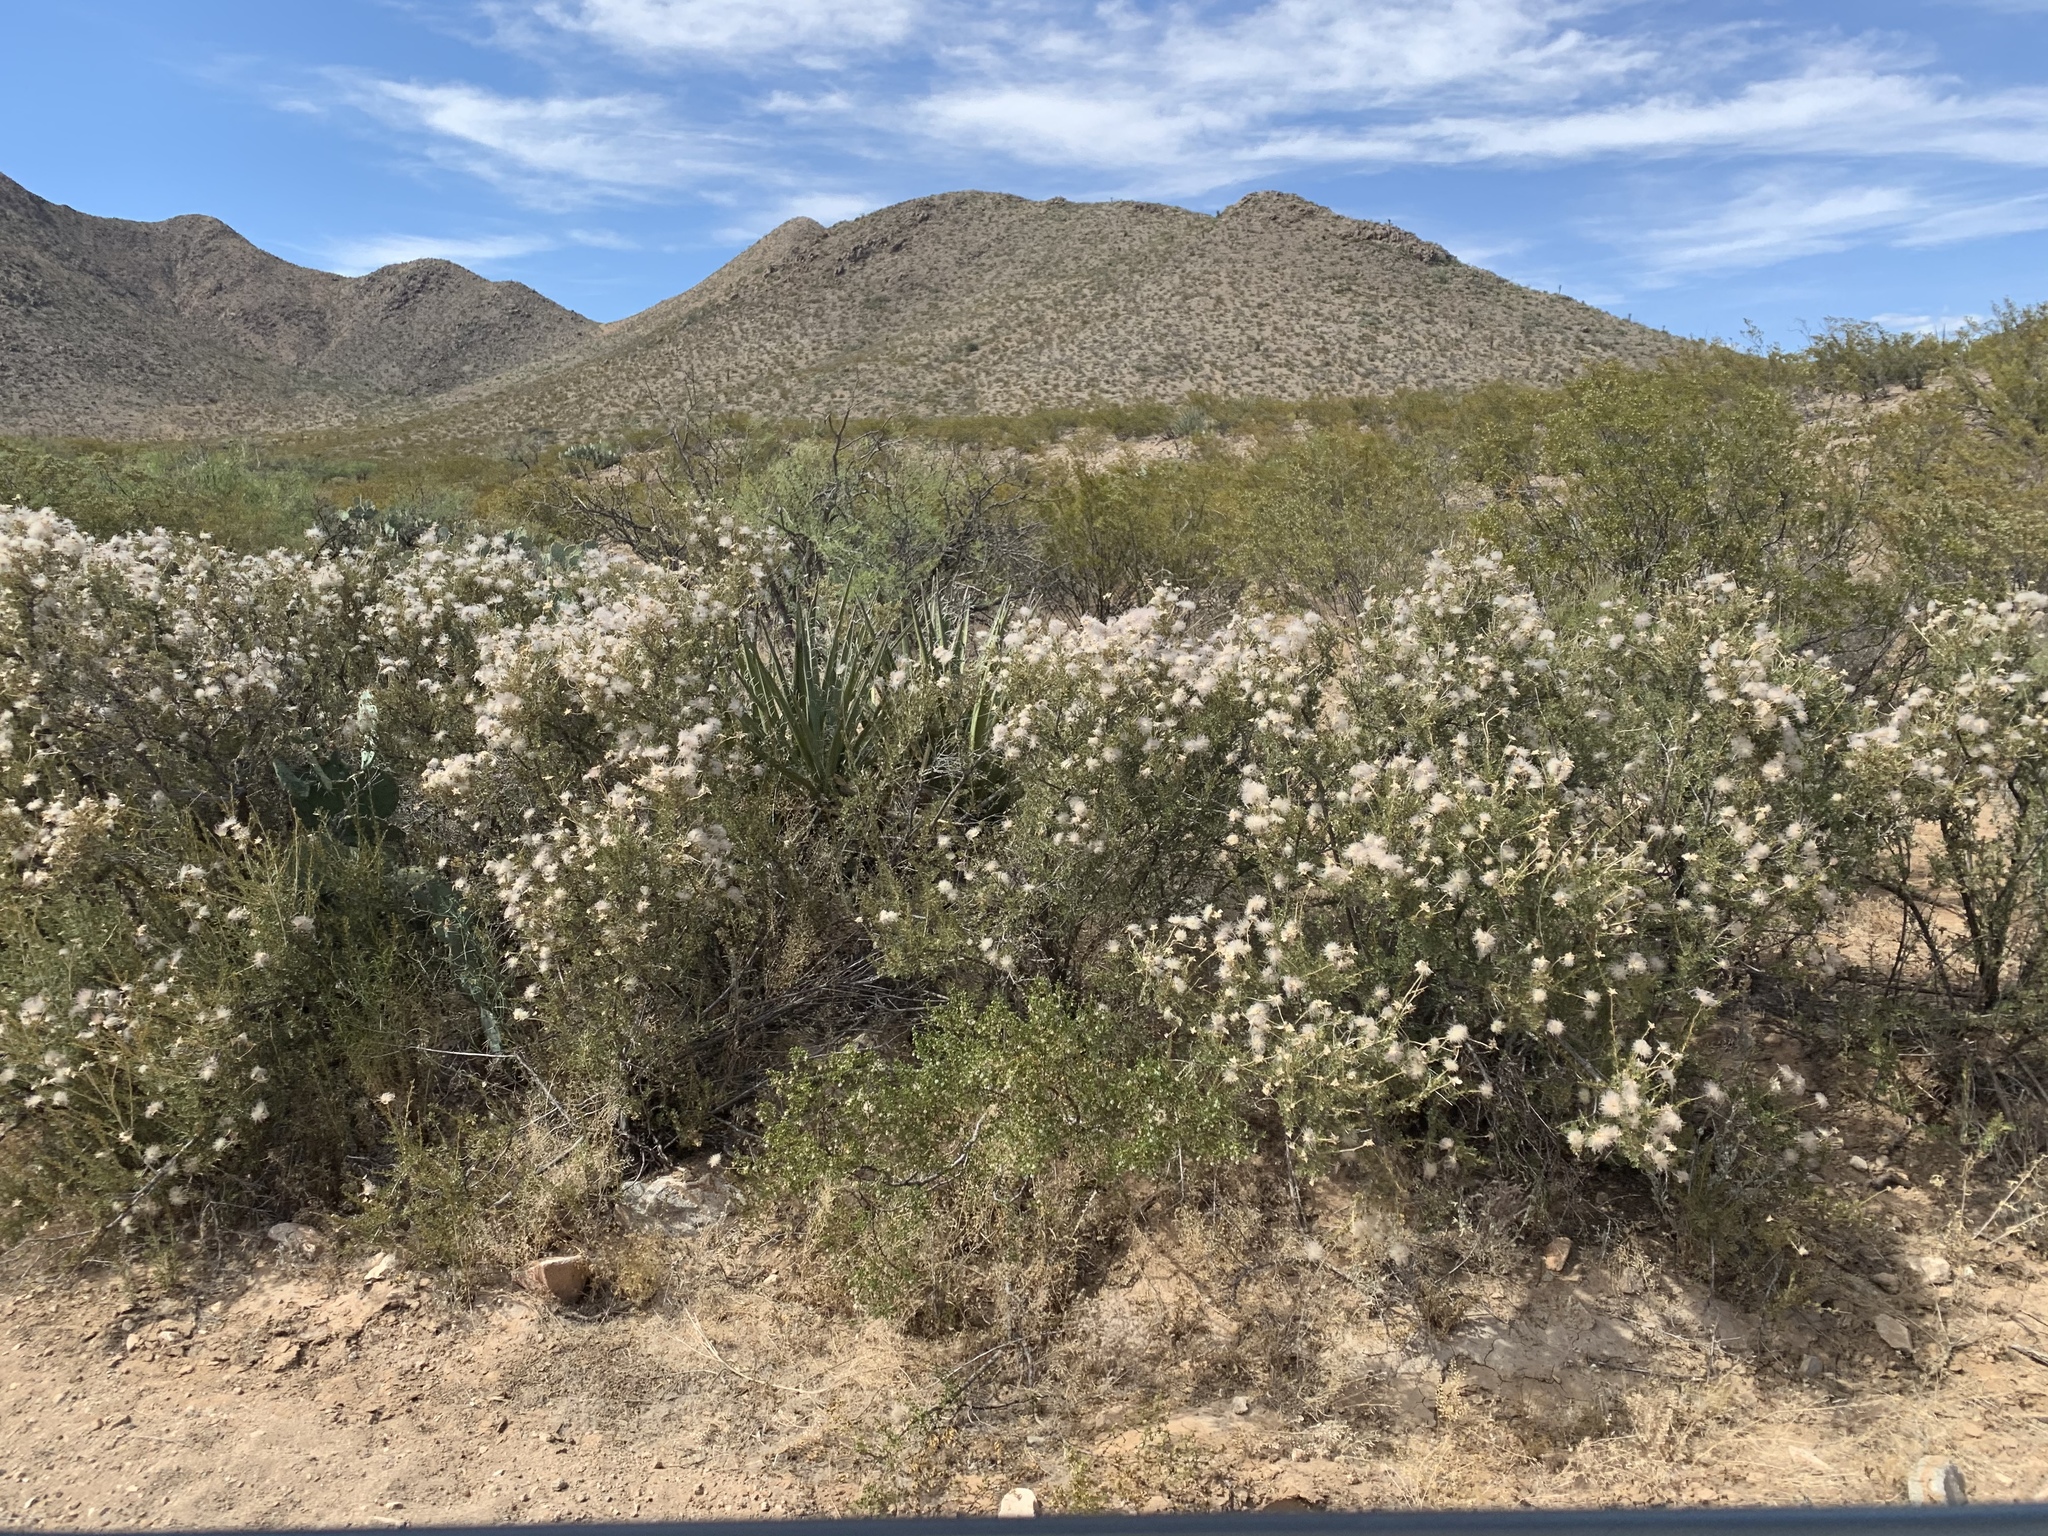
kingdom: Plantae
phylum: Tracheophyta
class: Magnoliopsida
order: Rosales
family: Rosaceae
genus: Fallugia
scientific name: Fallugia paradoxa
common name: Apache-plume
